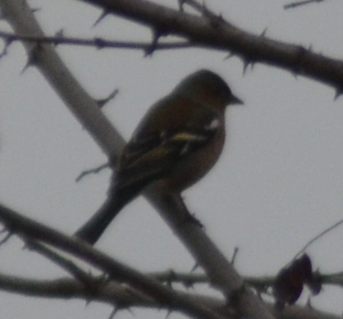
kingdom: Animalia
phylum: Chordata
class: Aves
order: Passeriformes
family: Fringillidae
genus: Fringilla
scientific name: Fringilla coelebs
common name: Common chaffinch
